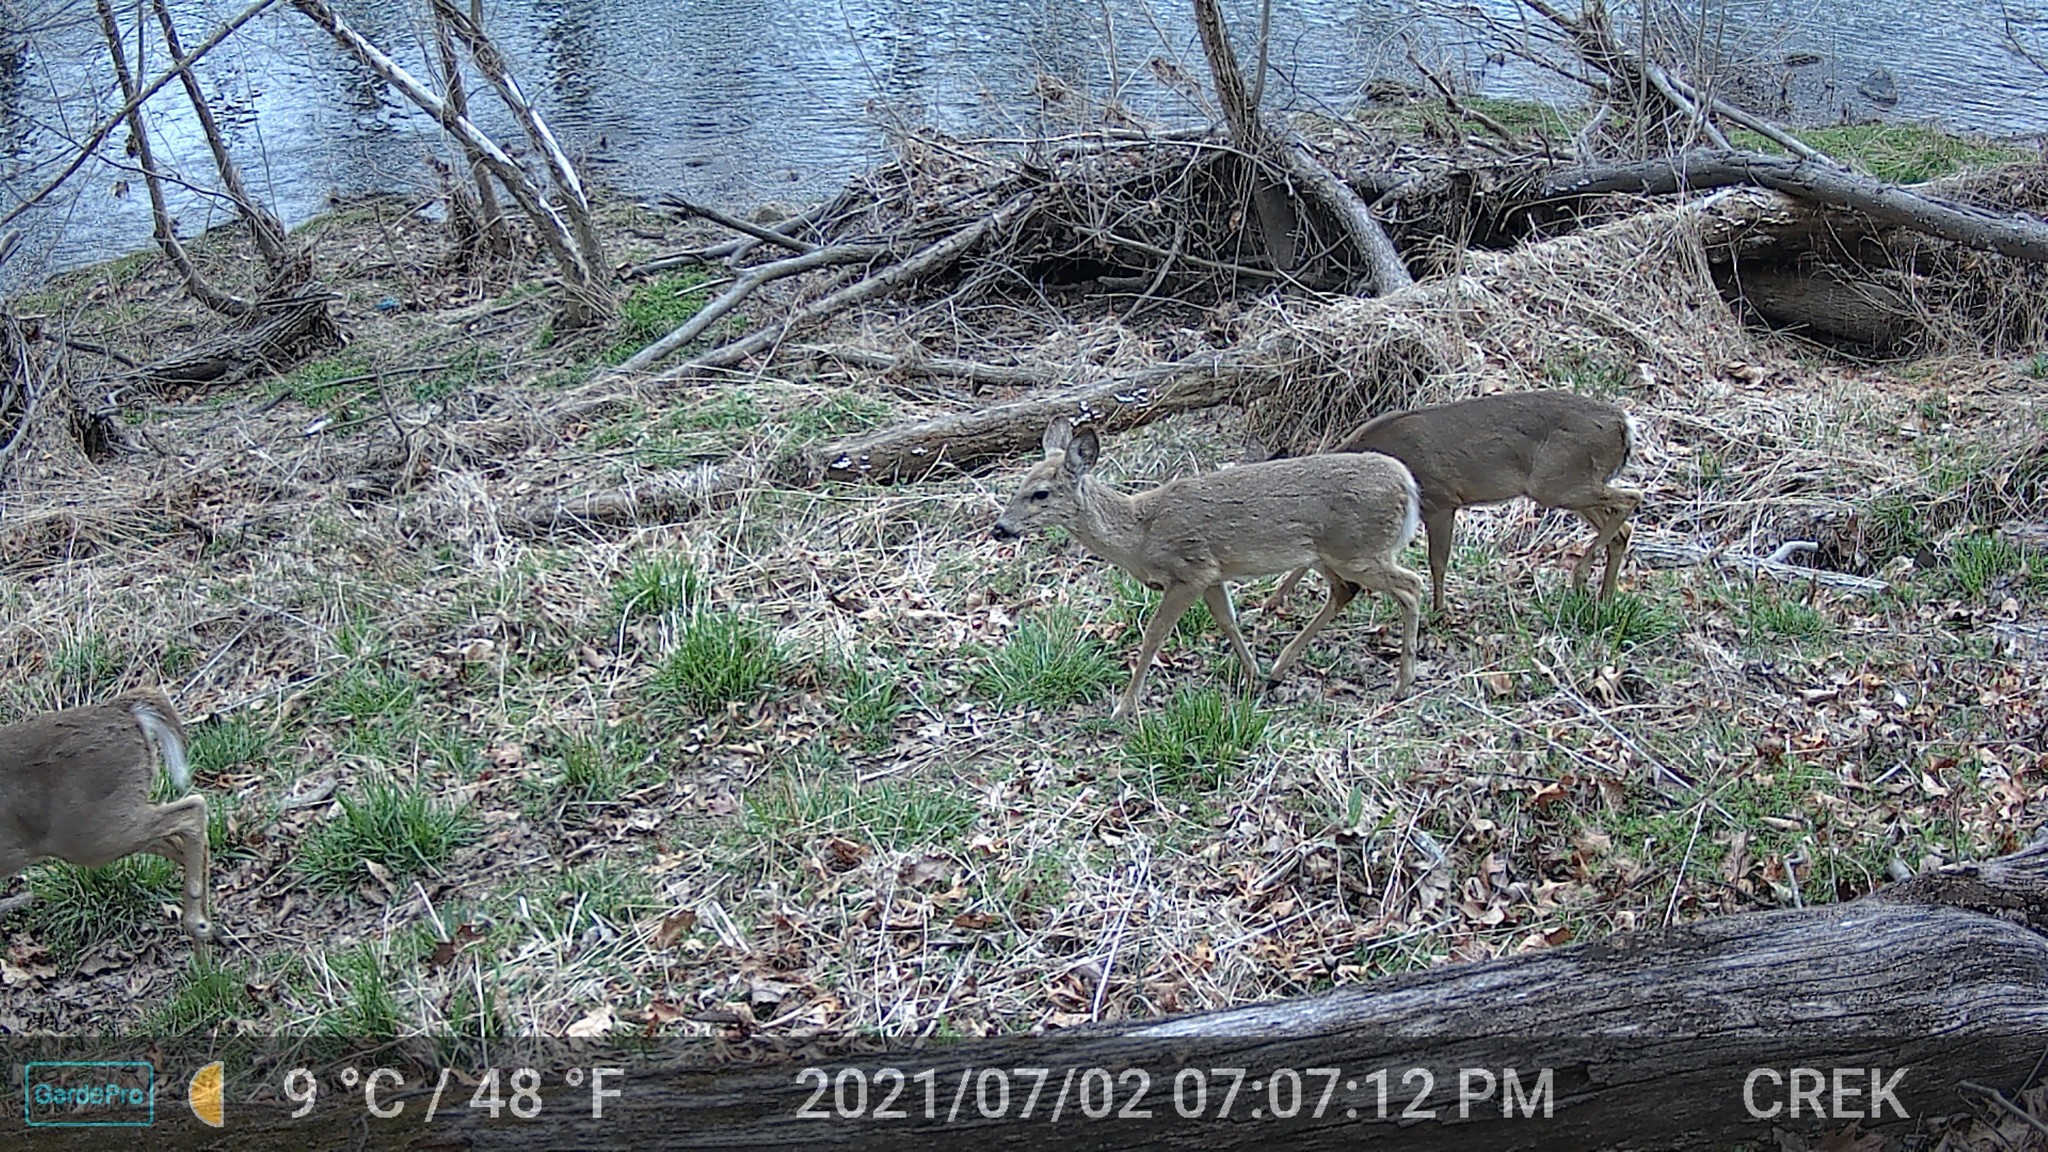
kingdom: Animalia
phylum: Chordata
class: Mammalia
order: Artiodactyla
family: Cervidae
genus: Odocoileus
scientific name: Odocoileus virginianus
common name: White-tailed deer
